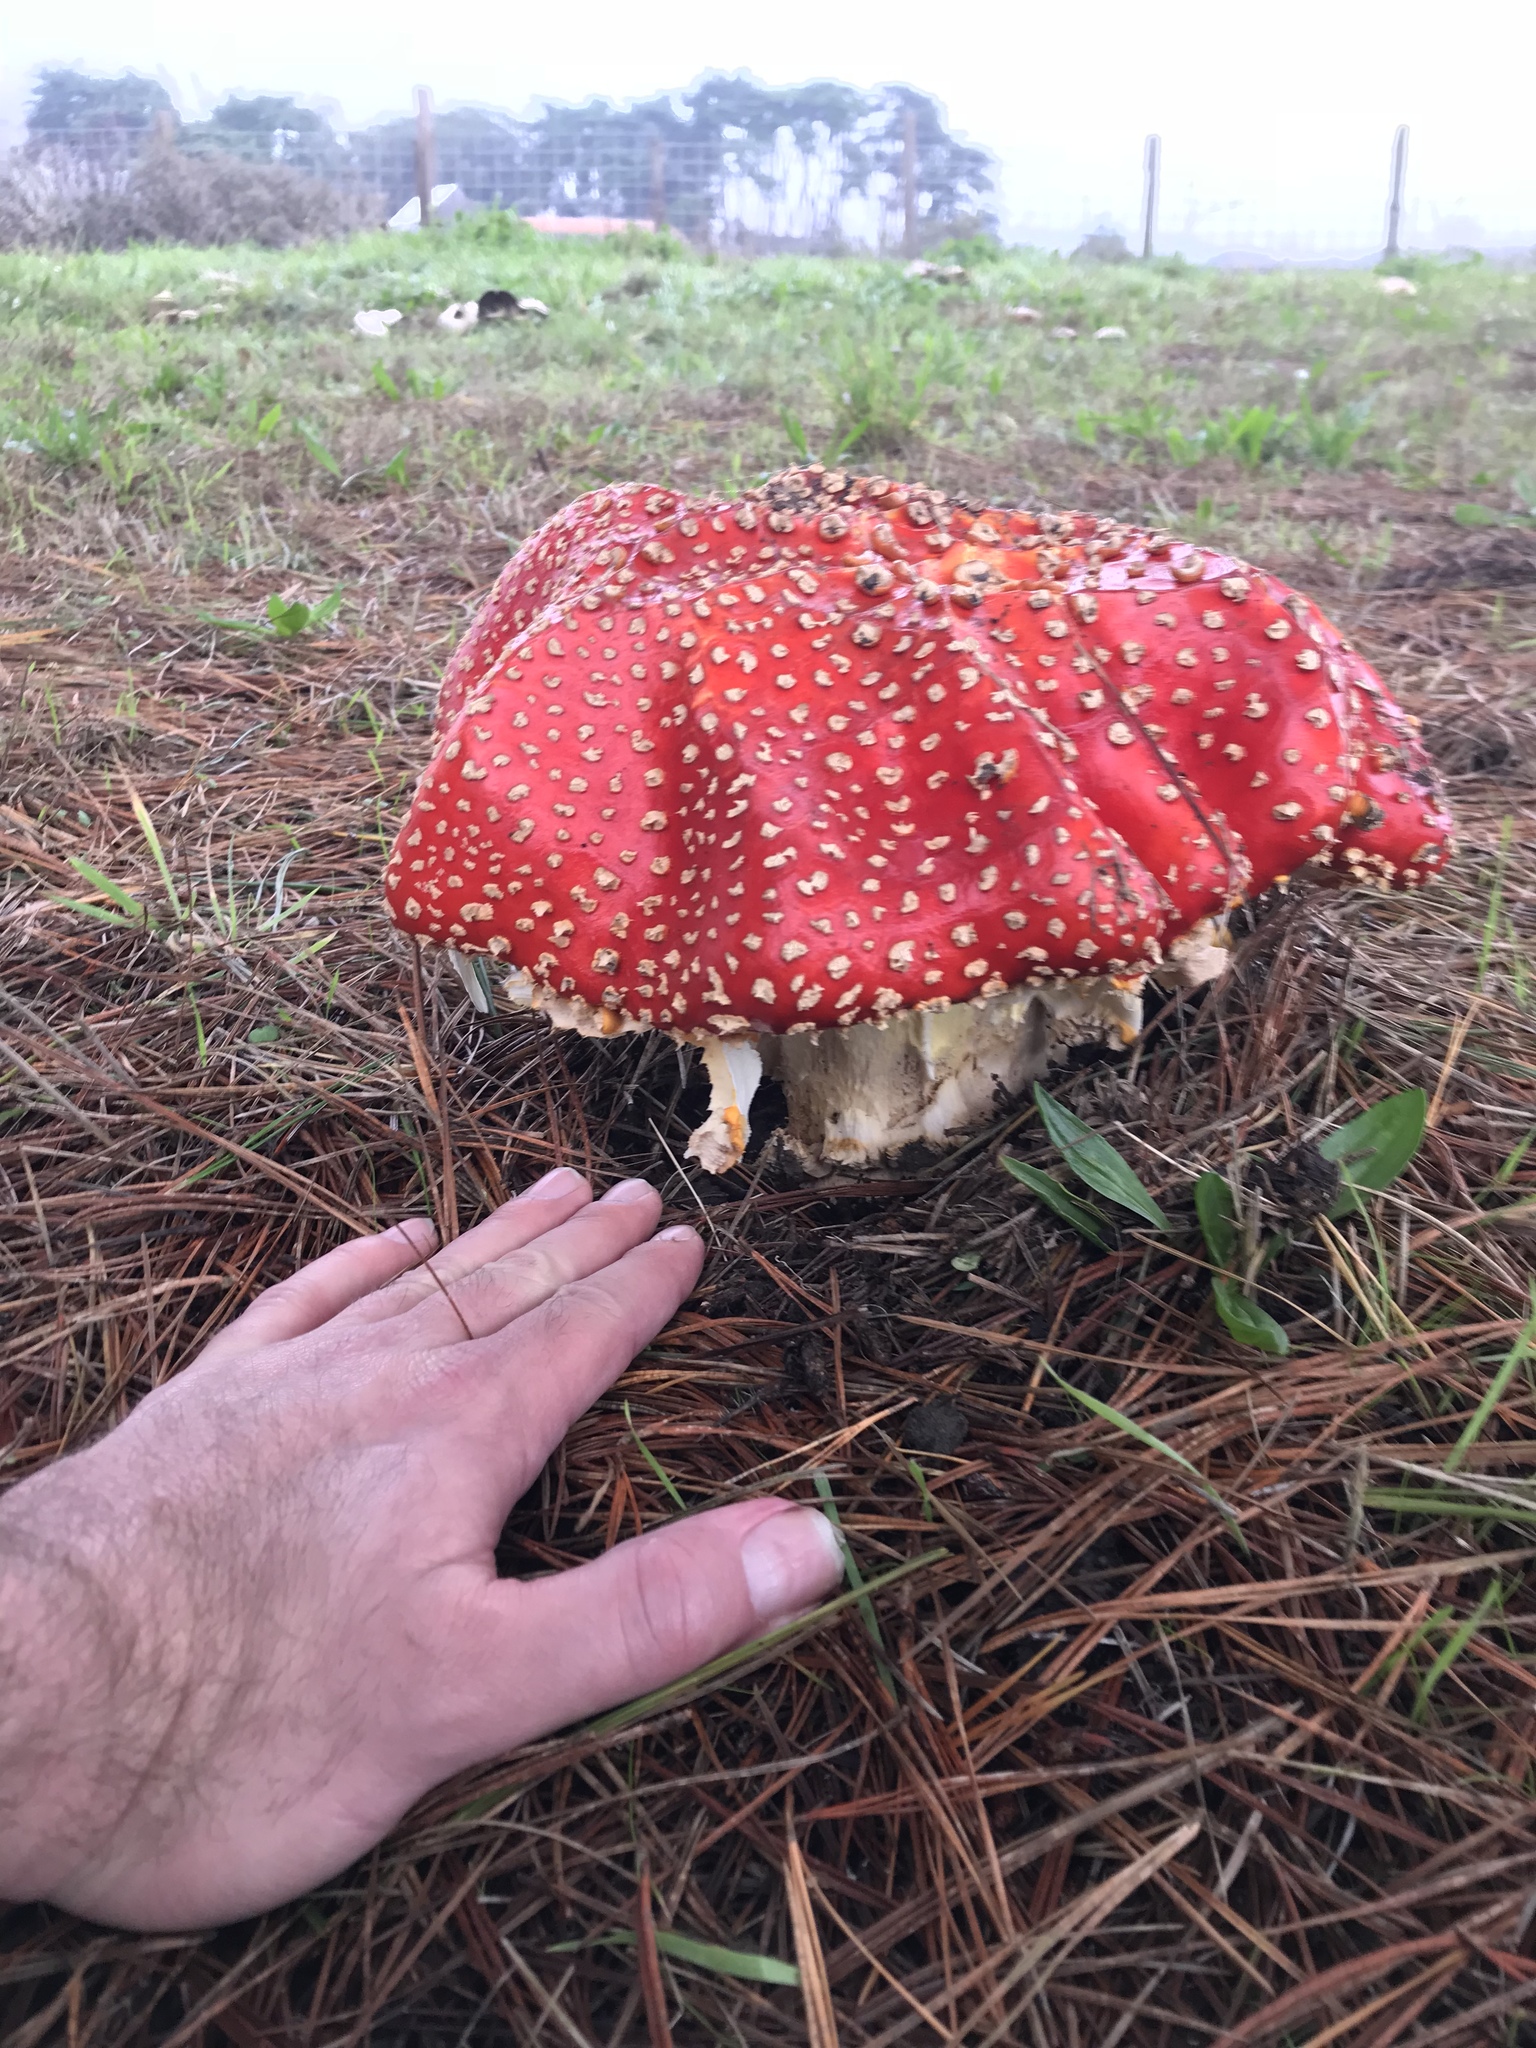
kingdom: Fungi
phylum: Basidiomycota
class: Agaricomycetes
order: Agaricales
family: Amanitaceae
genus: Amanita
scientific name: Amanita muscaria
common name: Fly agaric
